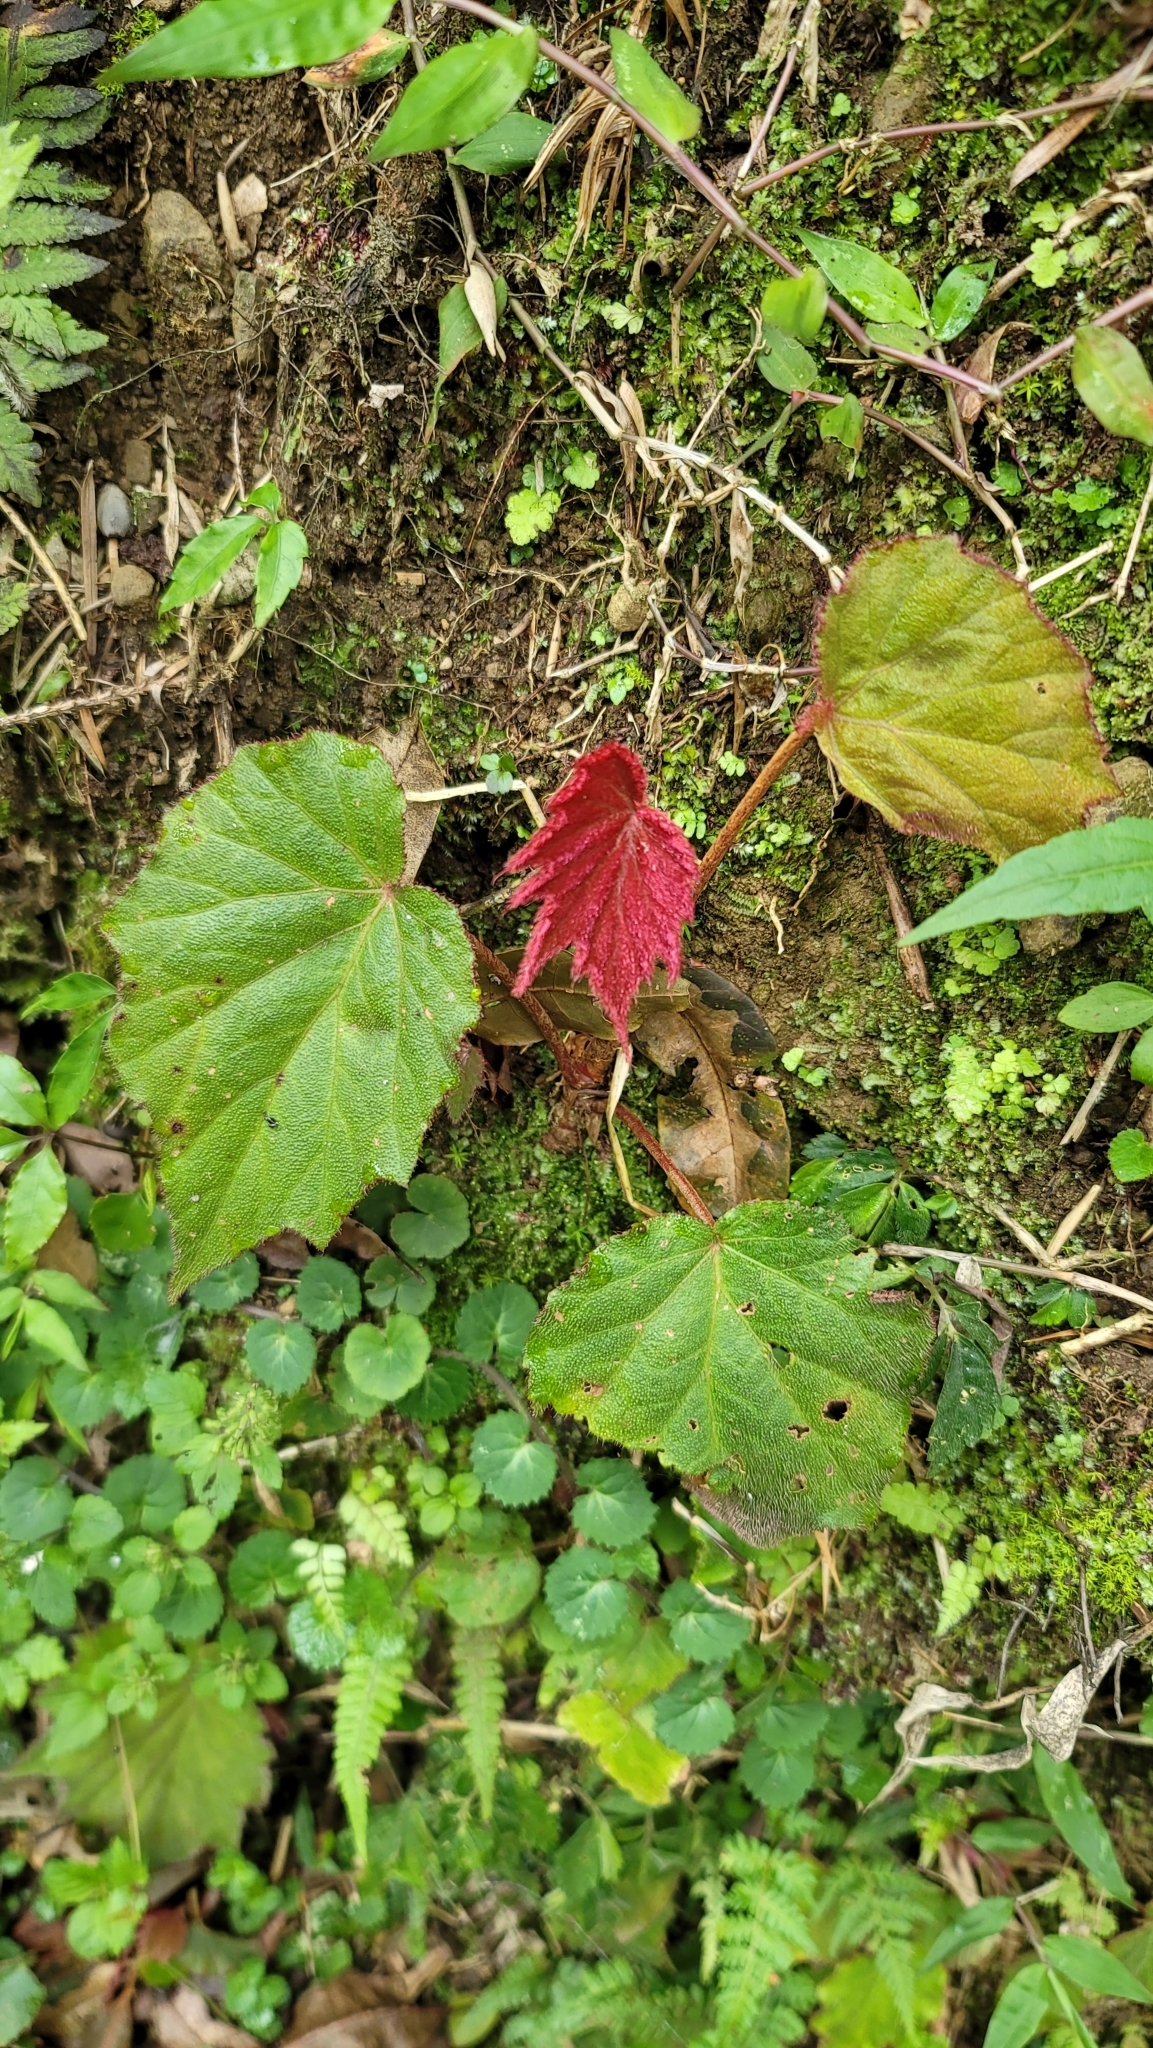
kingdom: Plantae
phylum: Tracheophyta
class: Magnoliopsida
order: Cucurbitales
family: Begoniaceae
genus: Begonia
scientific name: Begonia palmata
